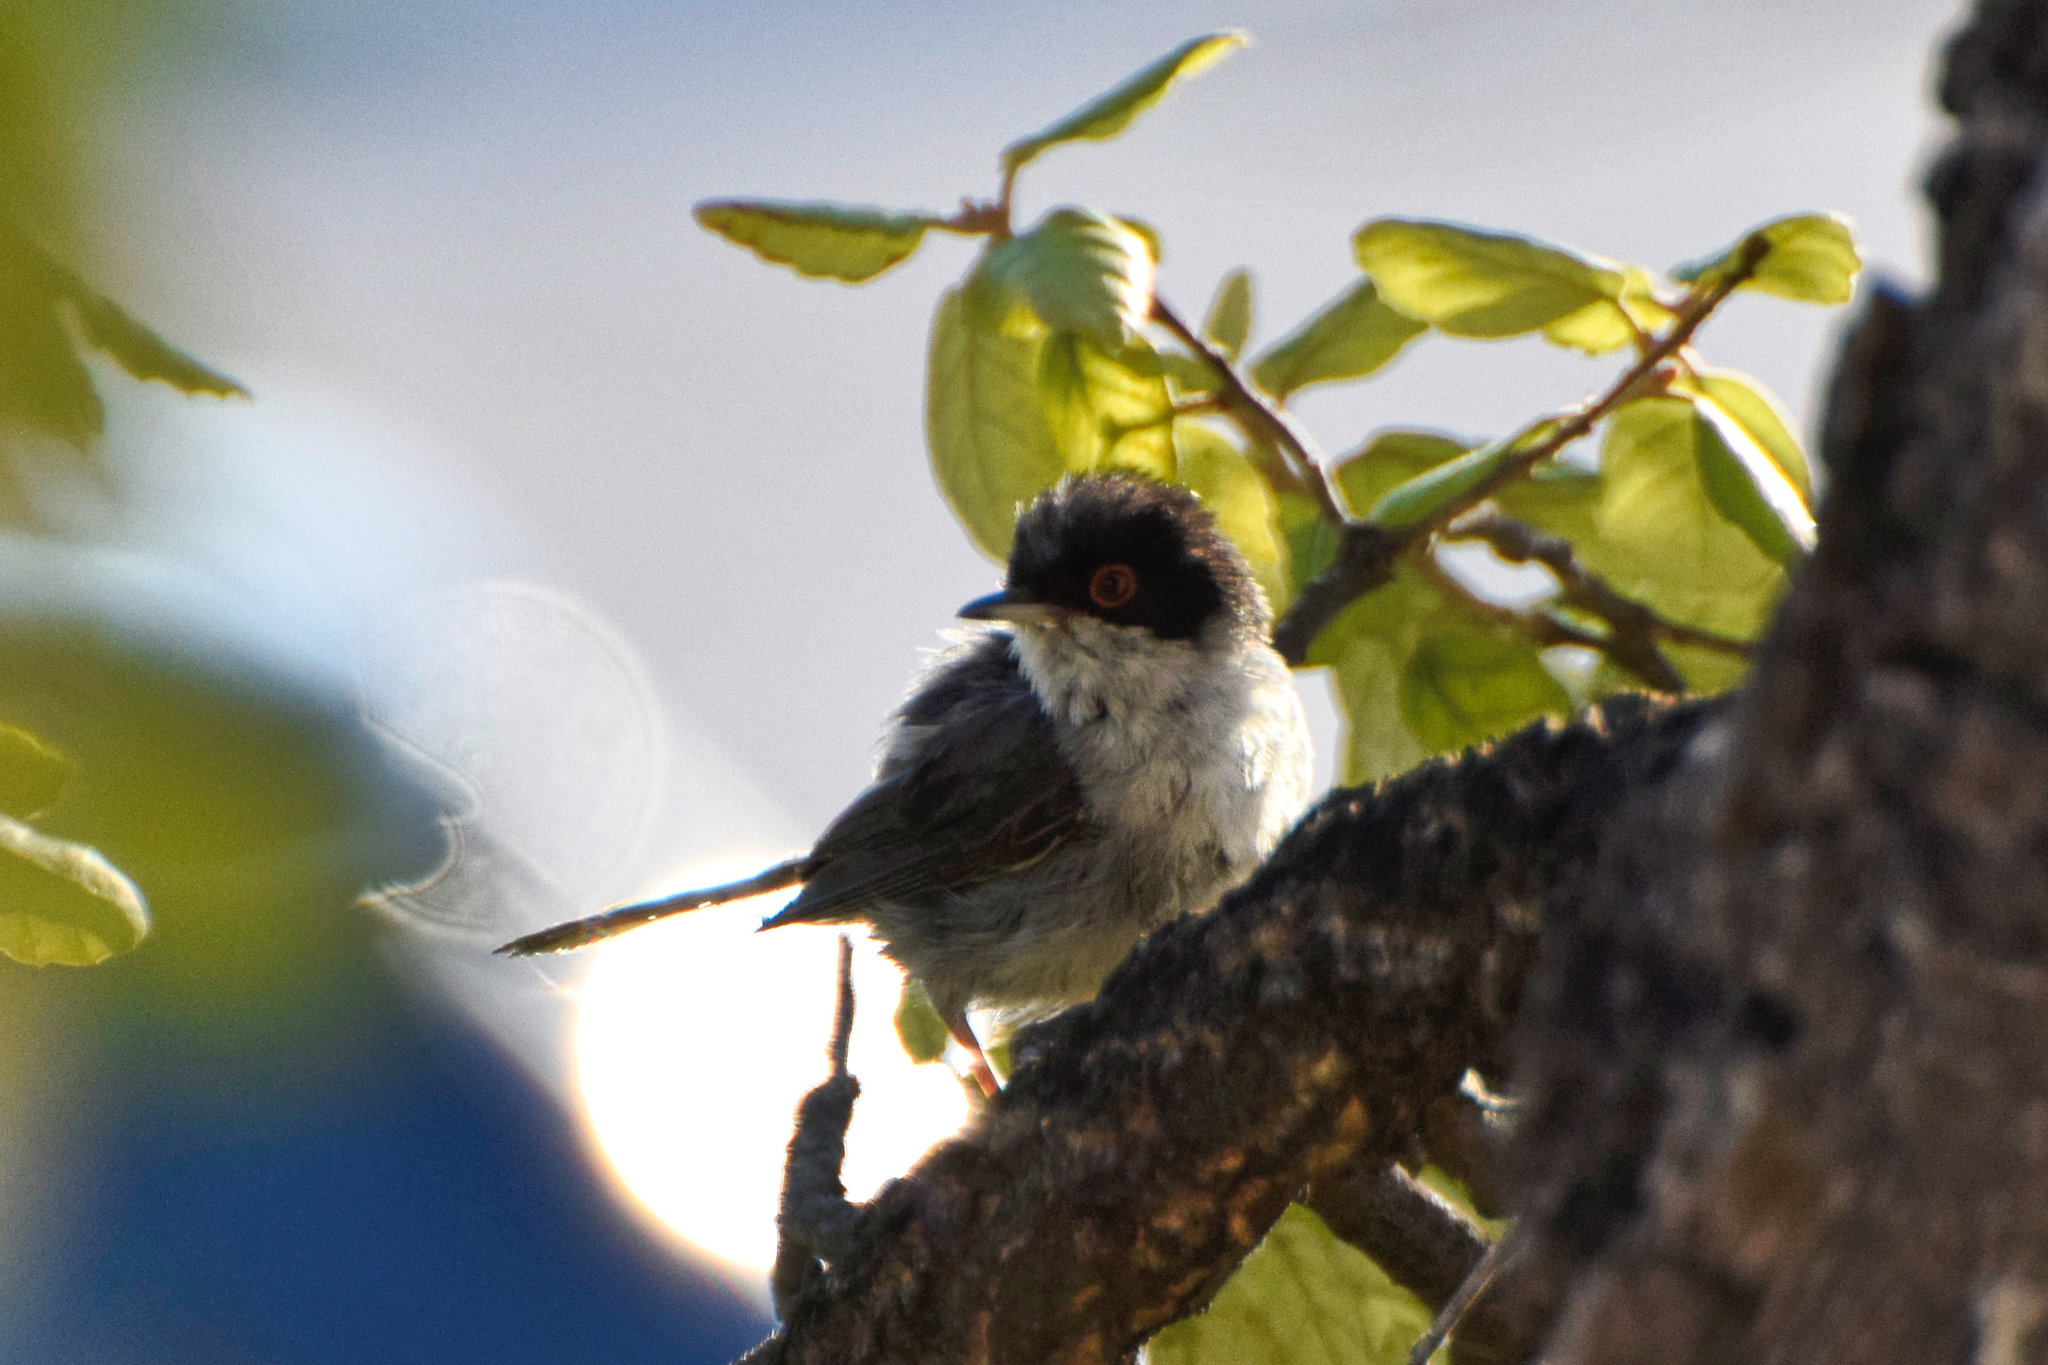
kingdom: Animalia
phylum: Chordata
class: Aves
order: Passeriformes
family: Sylviidae
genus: Curruca
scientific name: Curruca melanocephala
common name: Sardinian warbler
